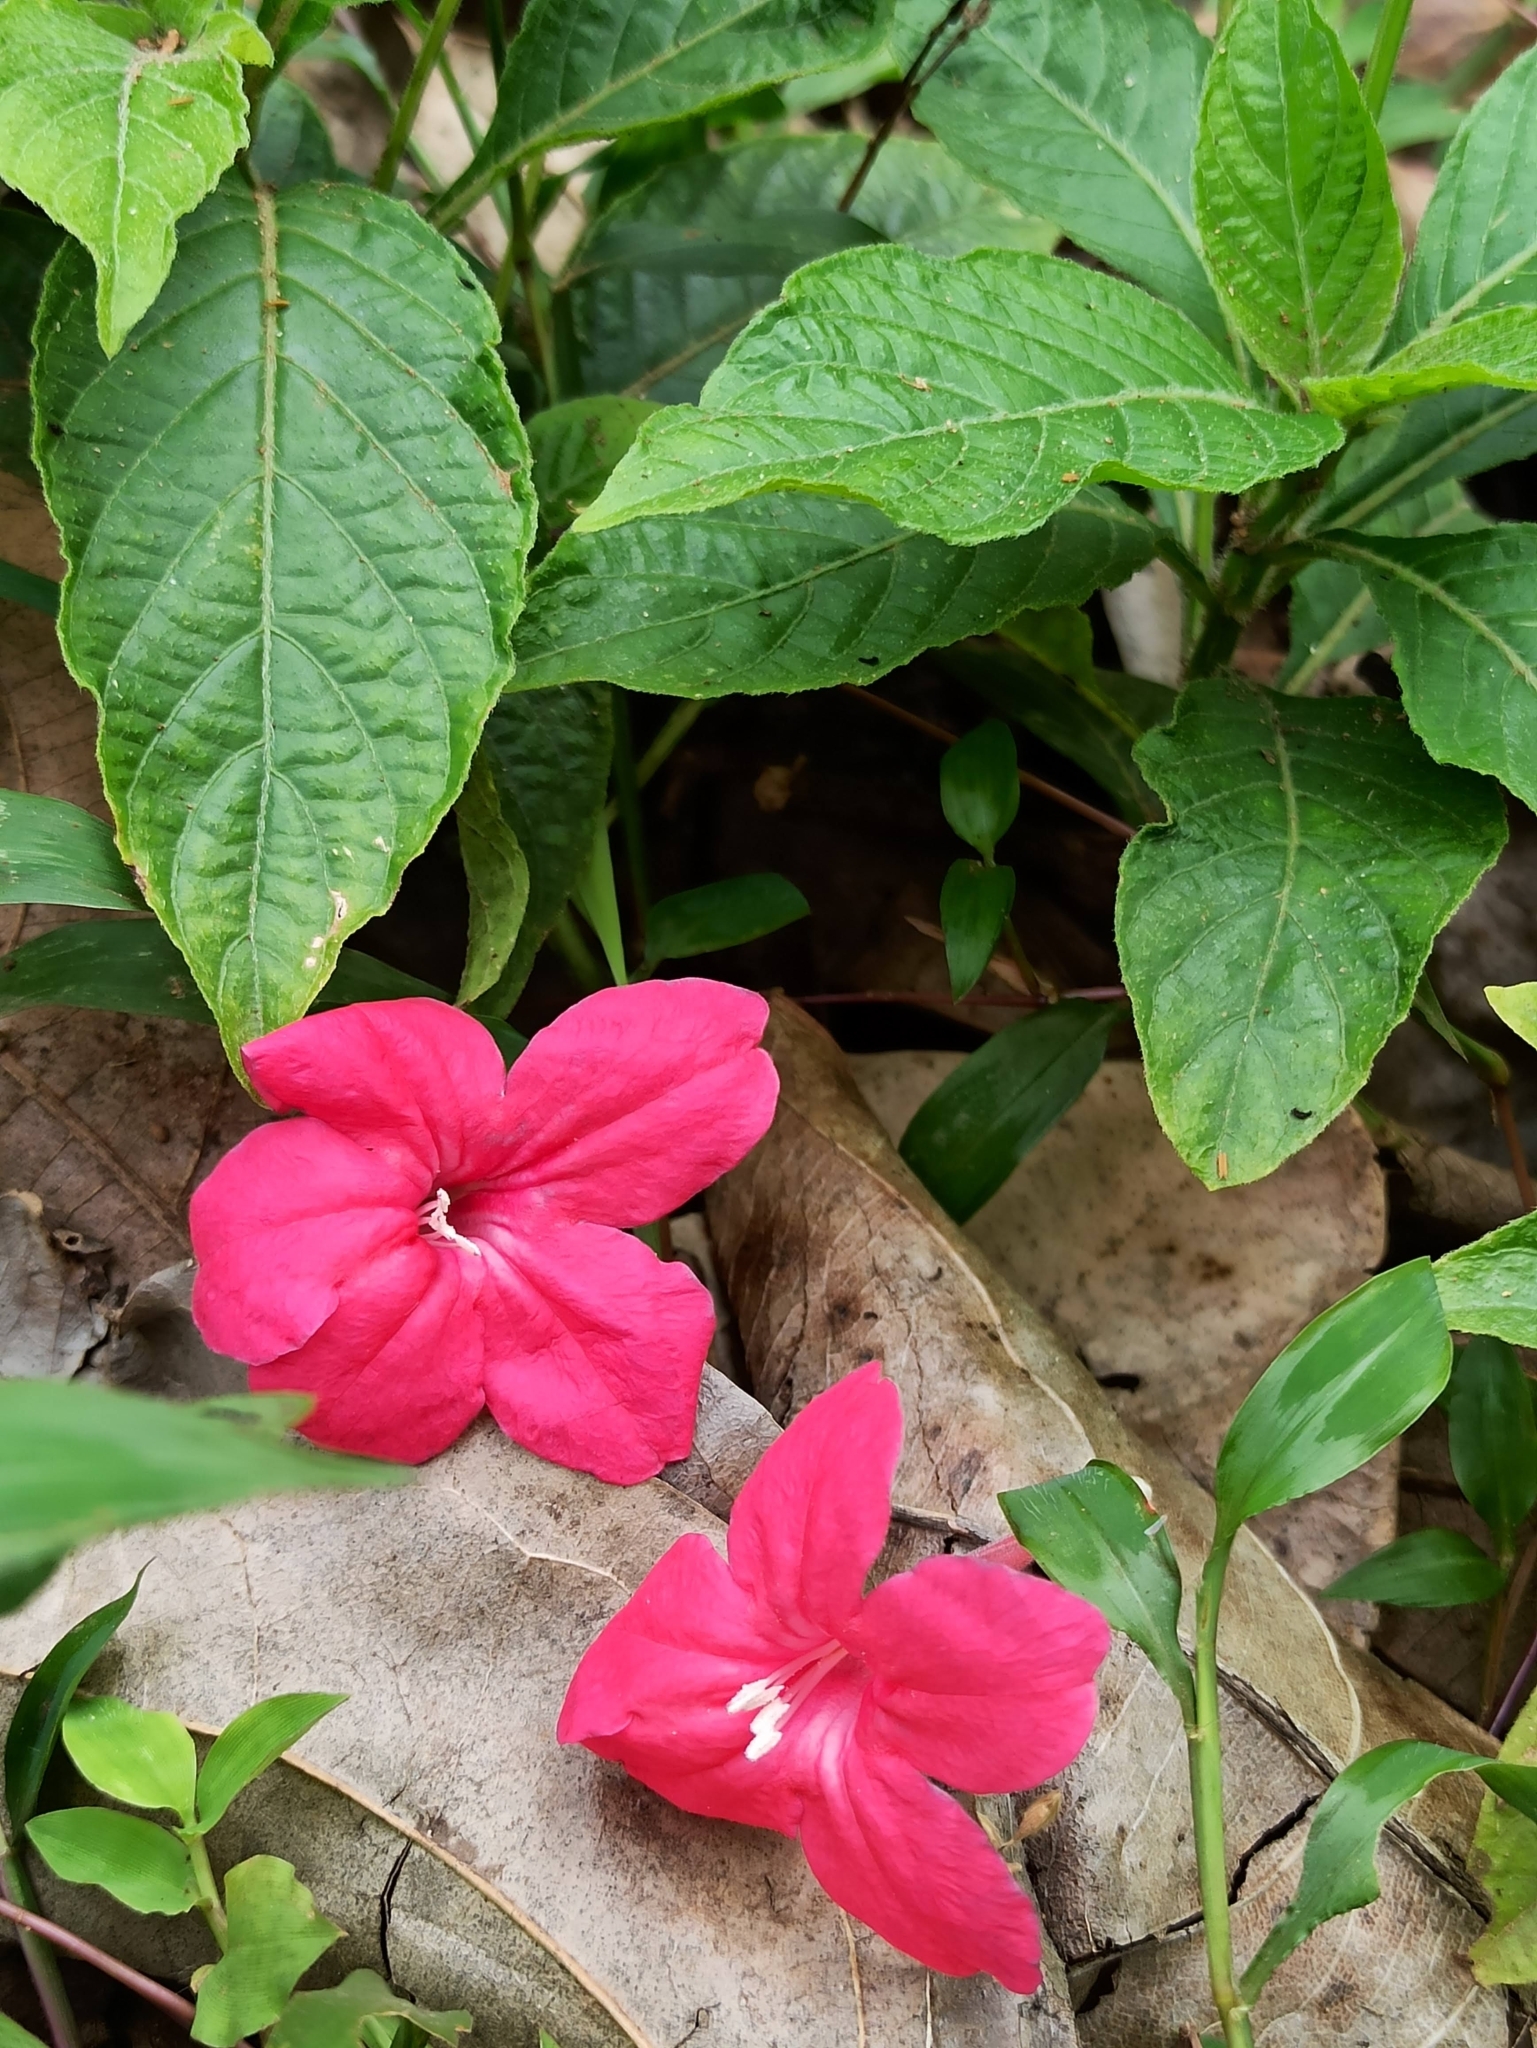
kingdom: Plantae
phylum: Tracheophyta
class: Magnoliopsida
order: Lamiales
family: Acanthaceae
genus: Ruellia
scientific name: Ruellia elegans
